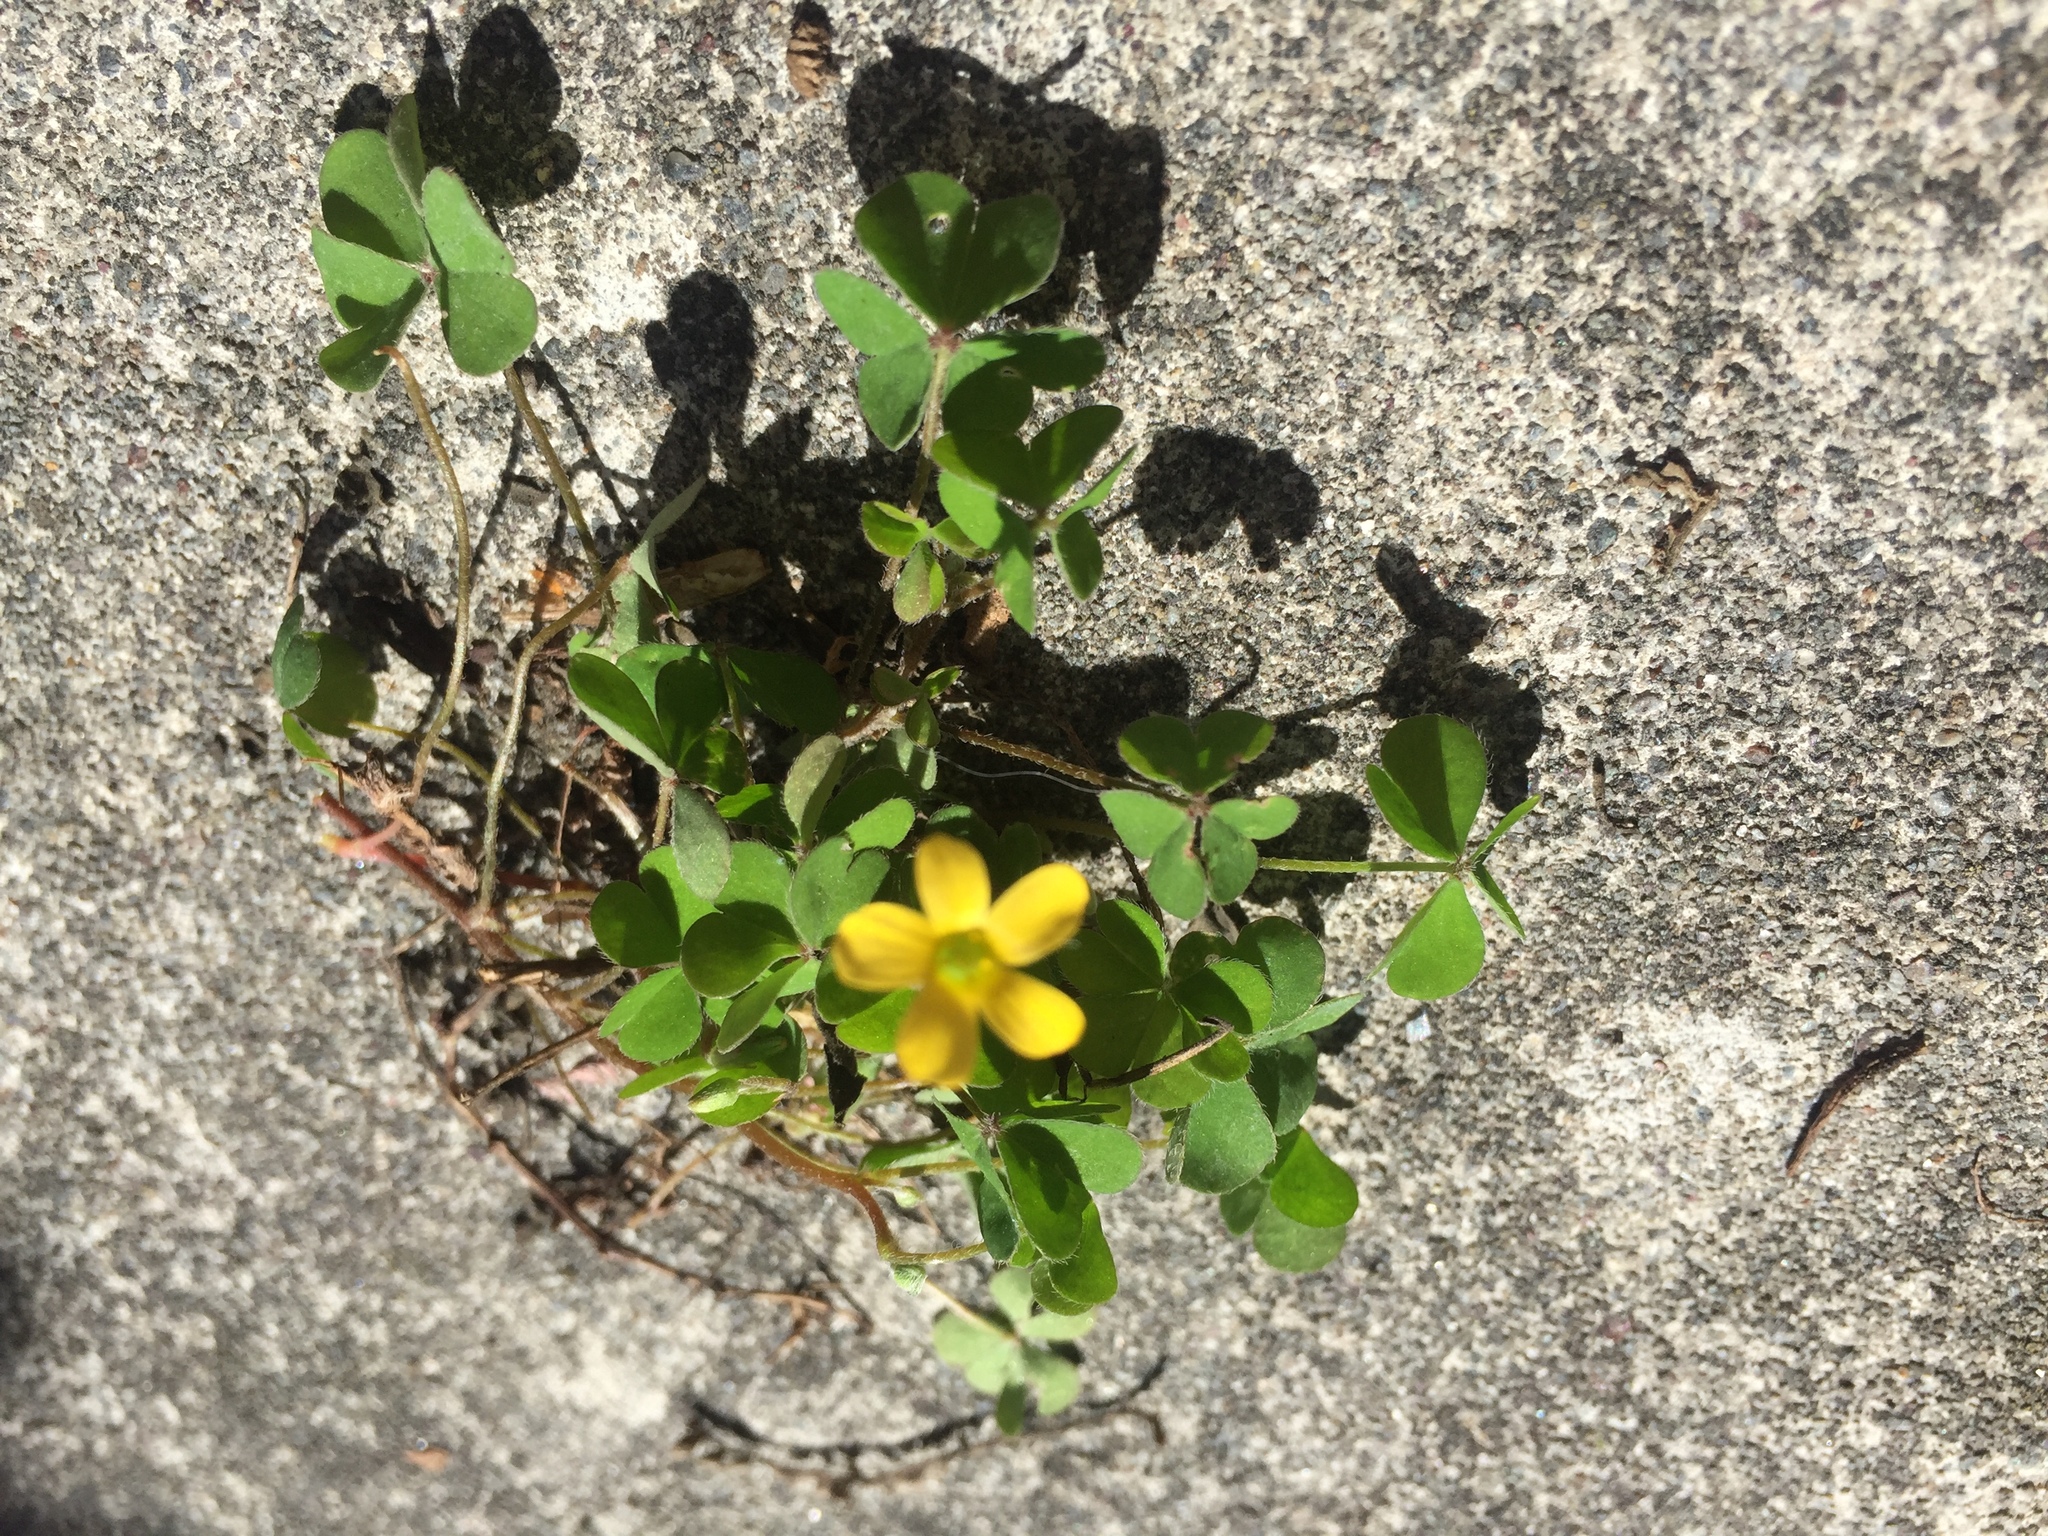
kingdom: Plantae
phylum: Tracheophyta
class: Magnoliopsida
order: Oxalidales
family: Oxalidaceae
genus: Oxalis
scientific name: Oxalis corniculata
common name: Procumbent yellow-sorrel
